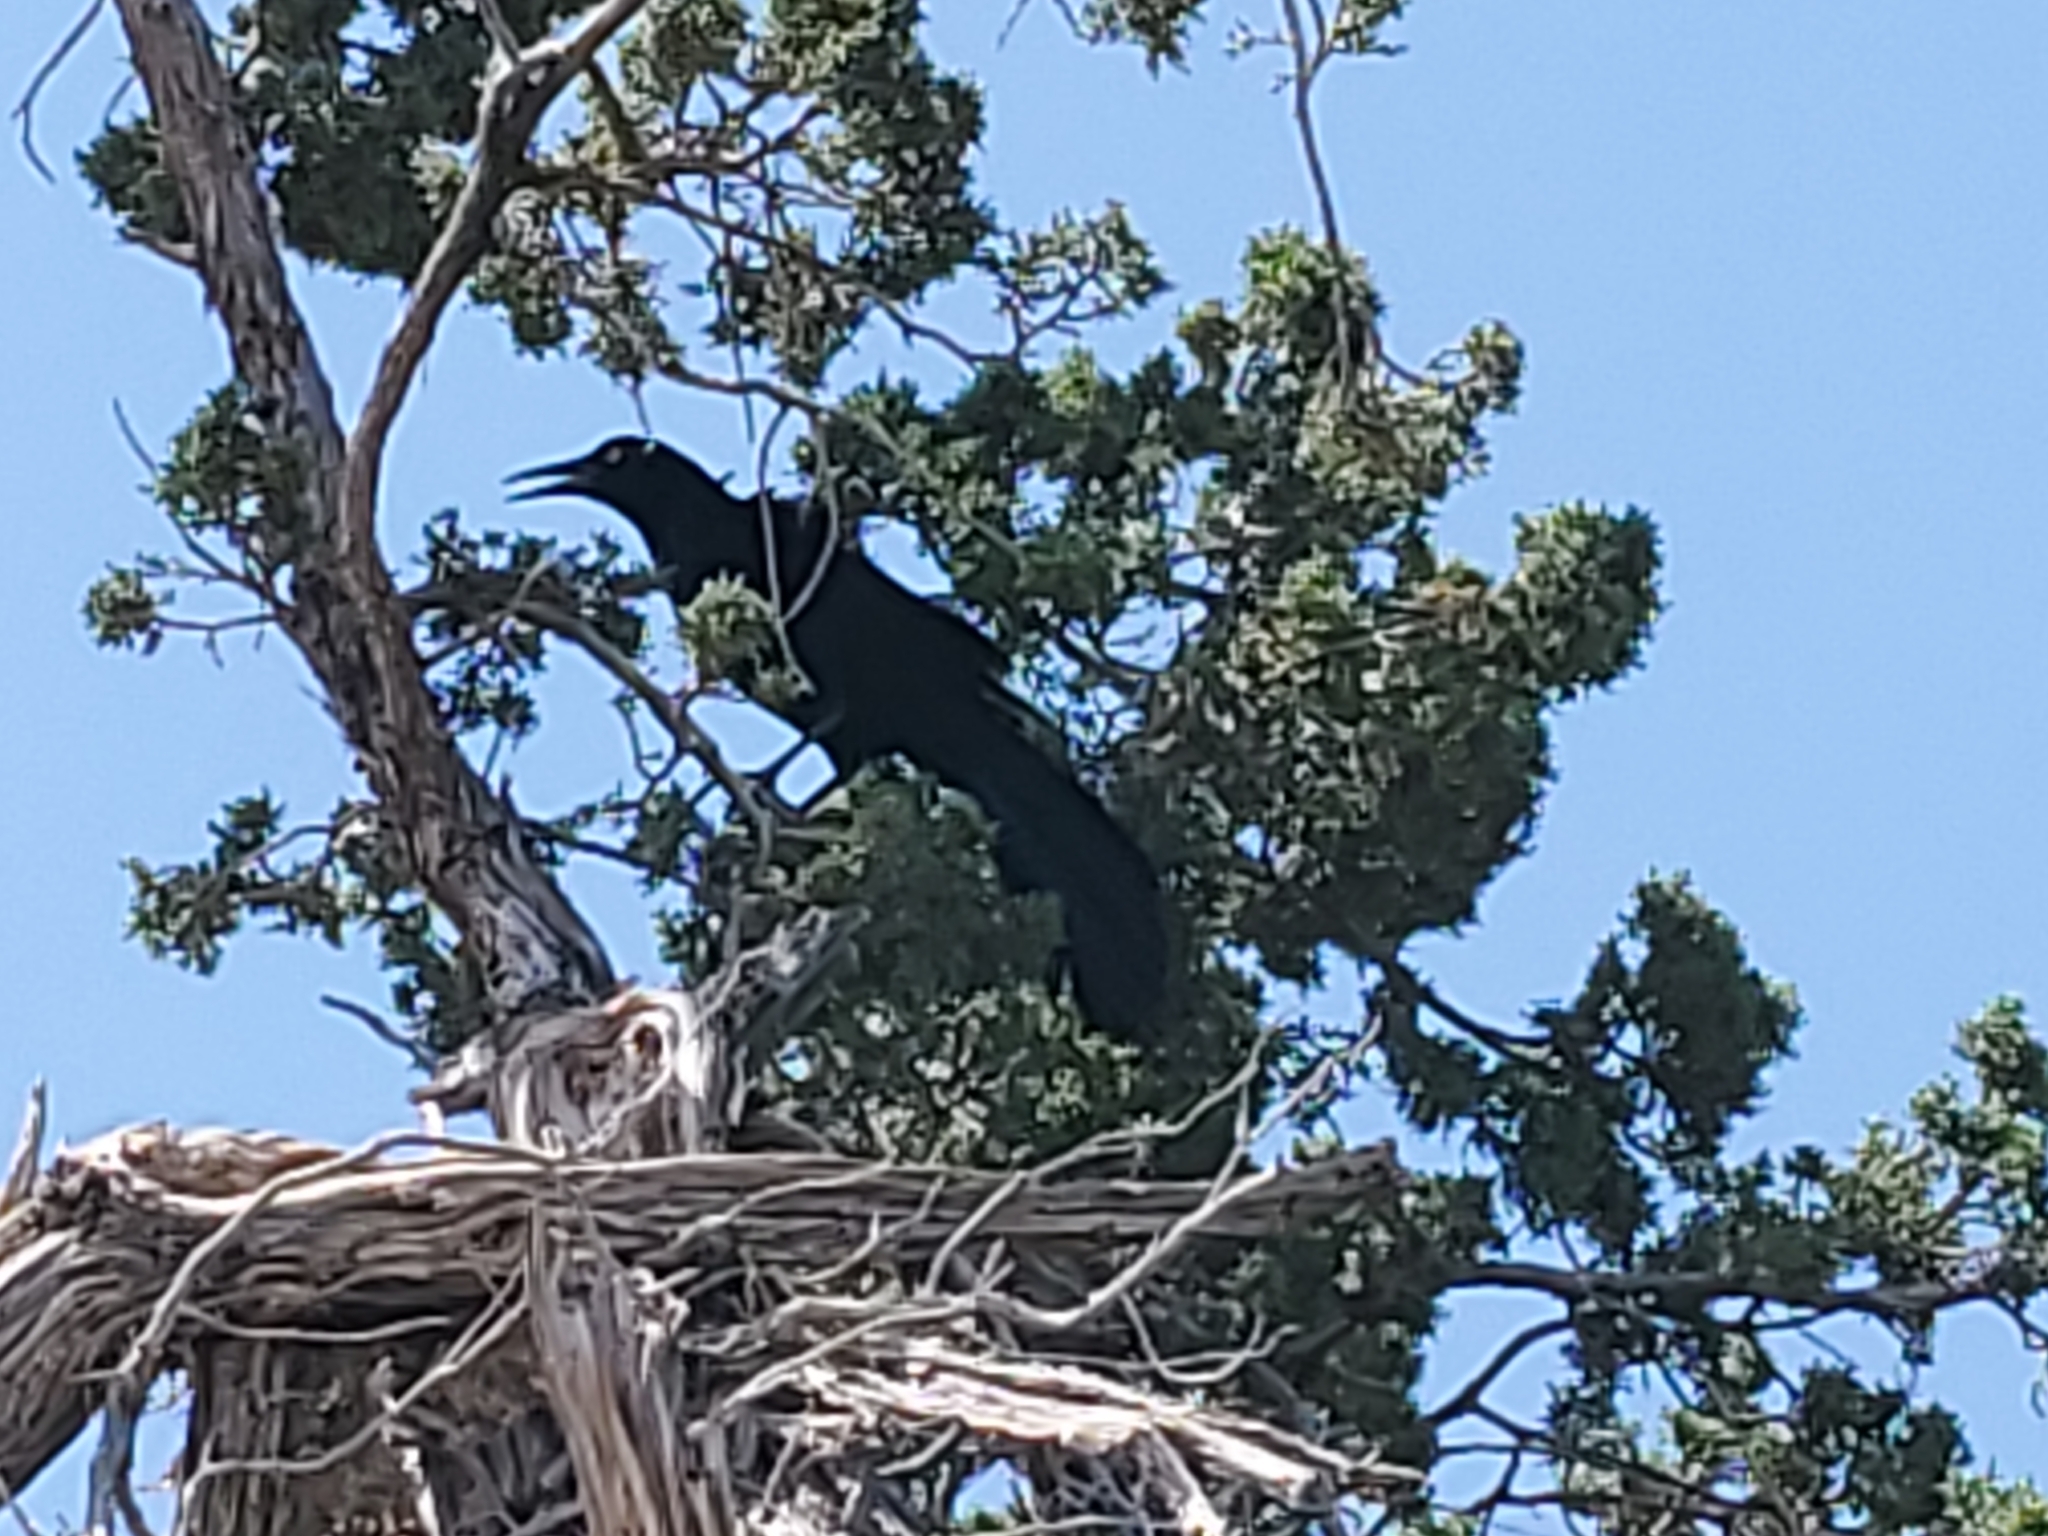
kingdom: Animalia
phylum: Chordata
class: Aves
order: Passeriformes
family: Icteridae
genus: Quiscalus
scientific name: Quiscalus mexicanus
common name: Great-tailed grackle
